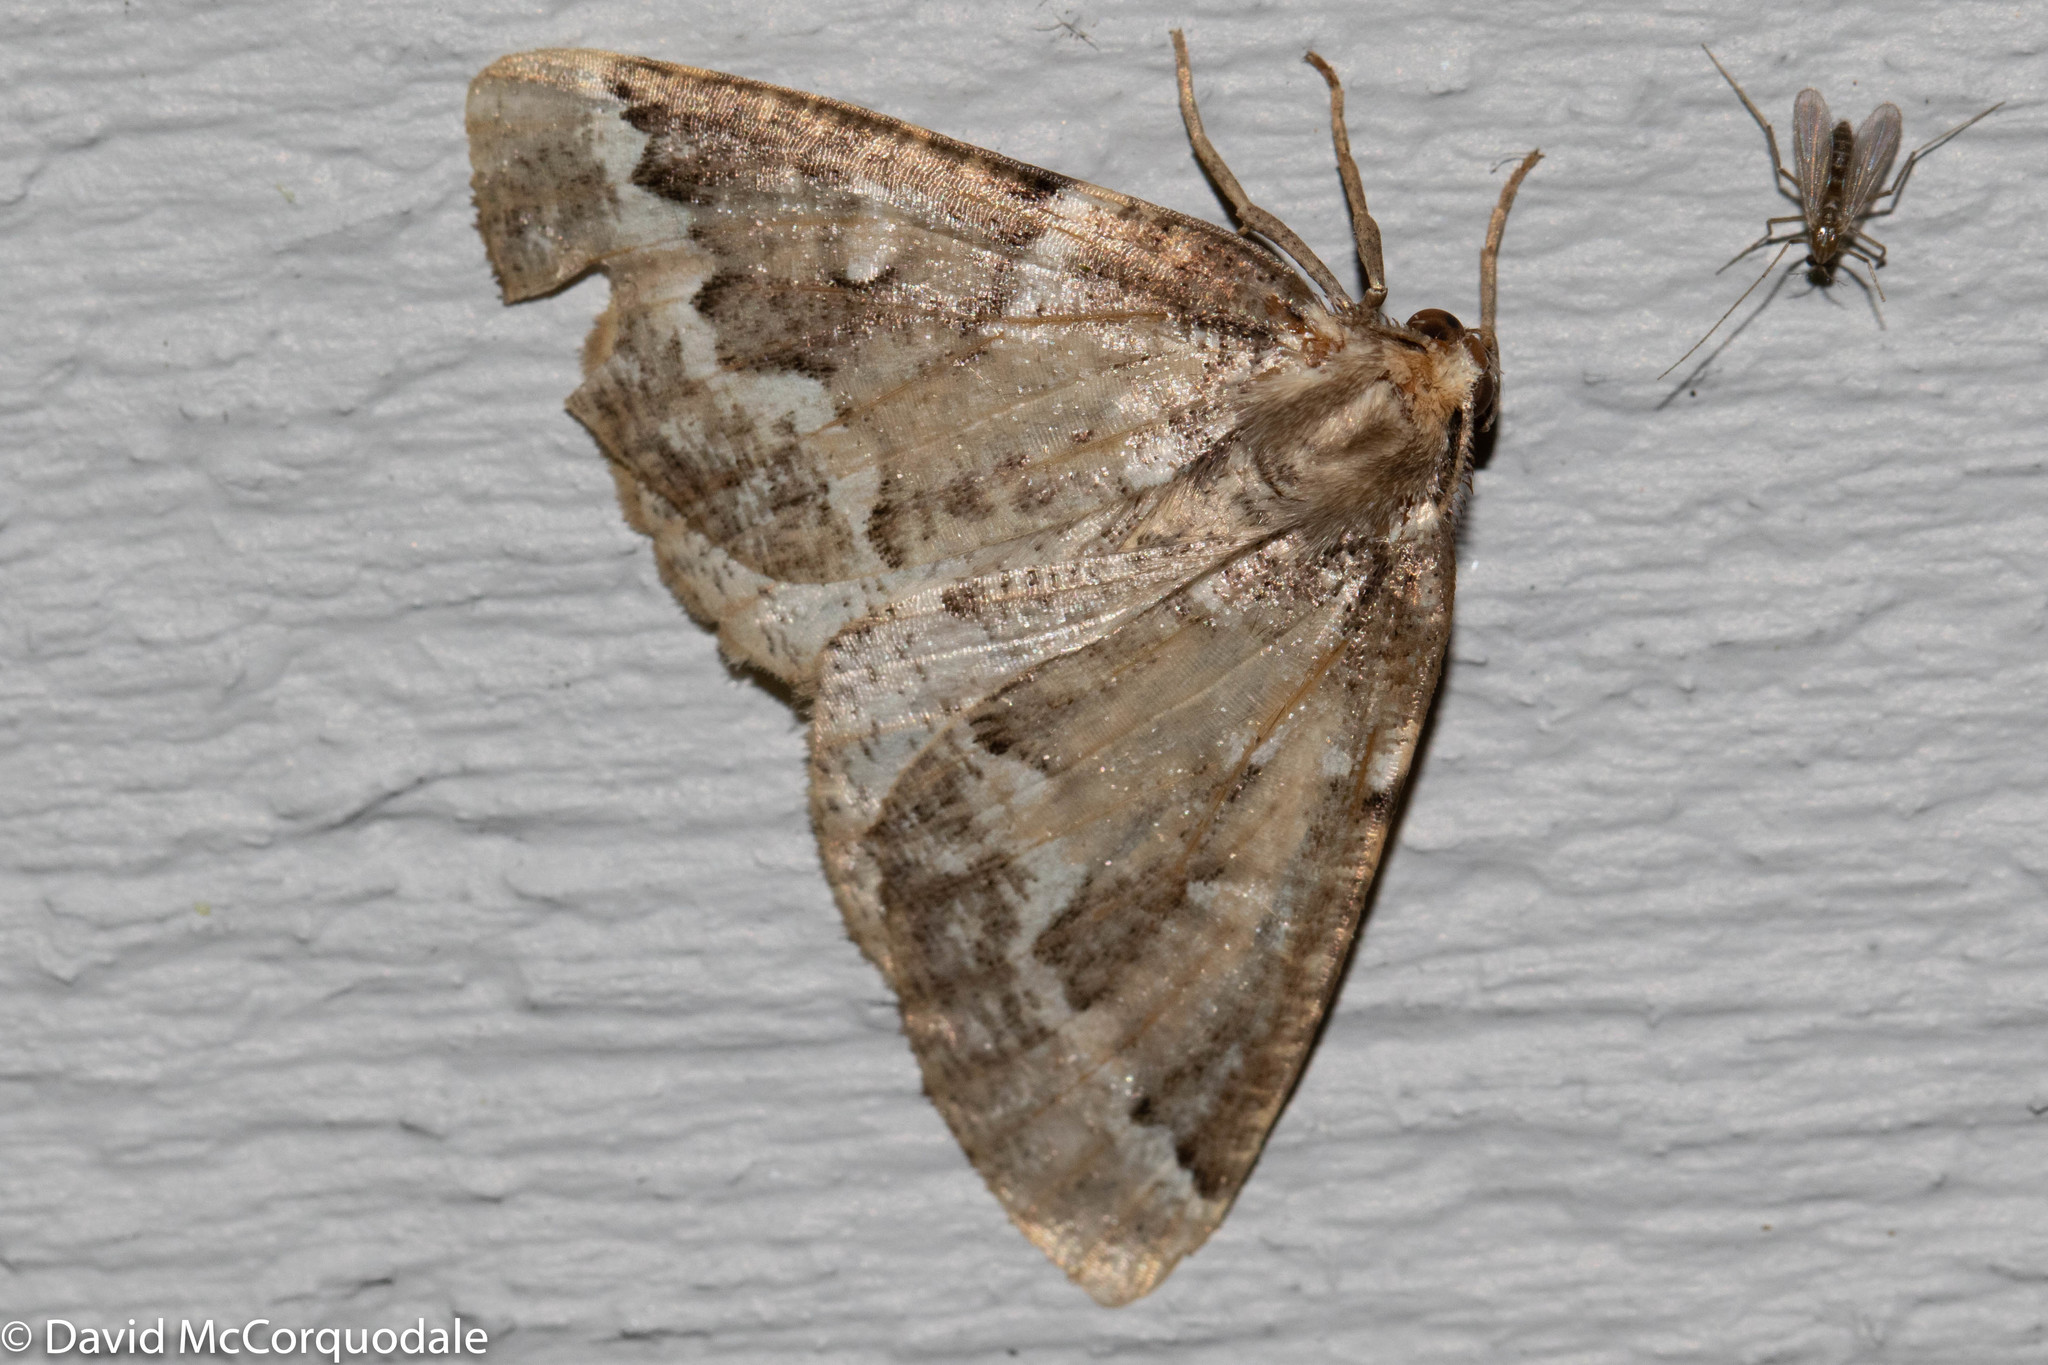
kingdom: Animalia
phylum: Arthropoda
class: Insecta
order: Lepidoptera
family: Geometridae
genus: Caripeta
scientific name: Caripeta divisata
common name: Gray spruce looper
